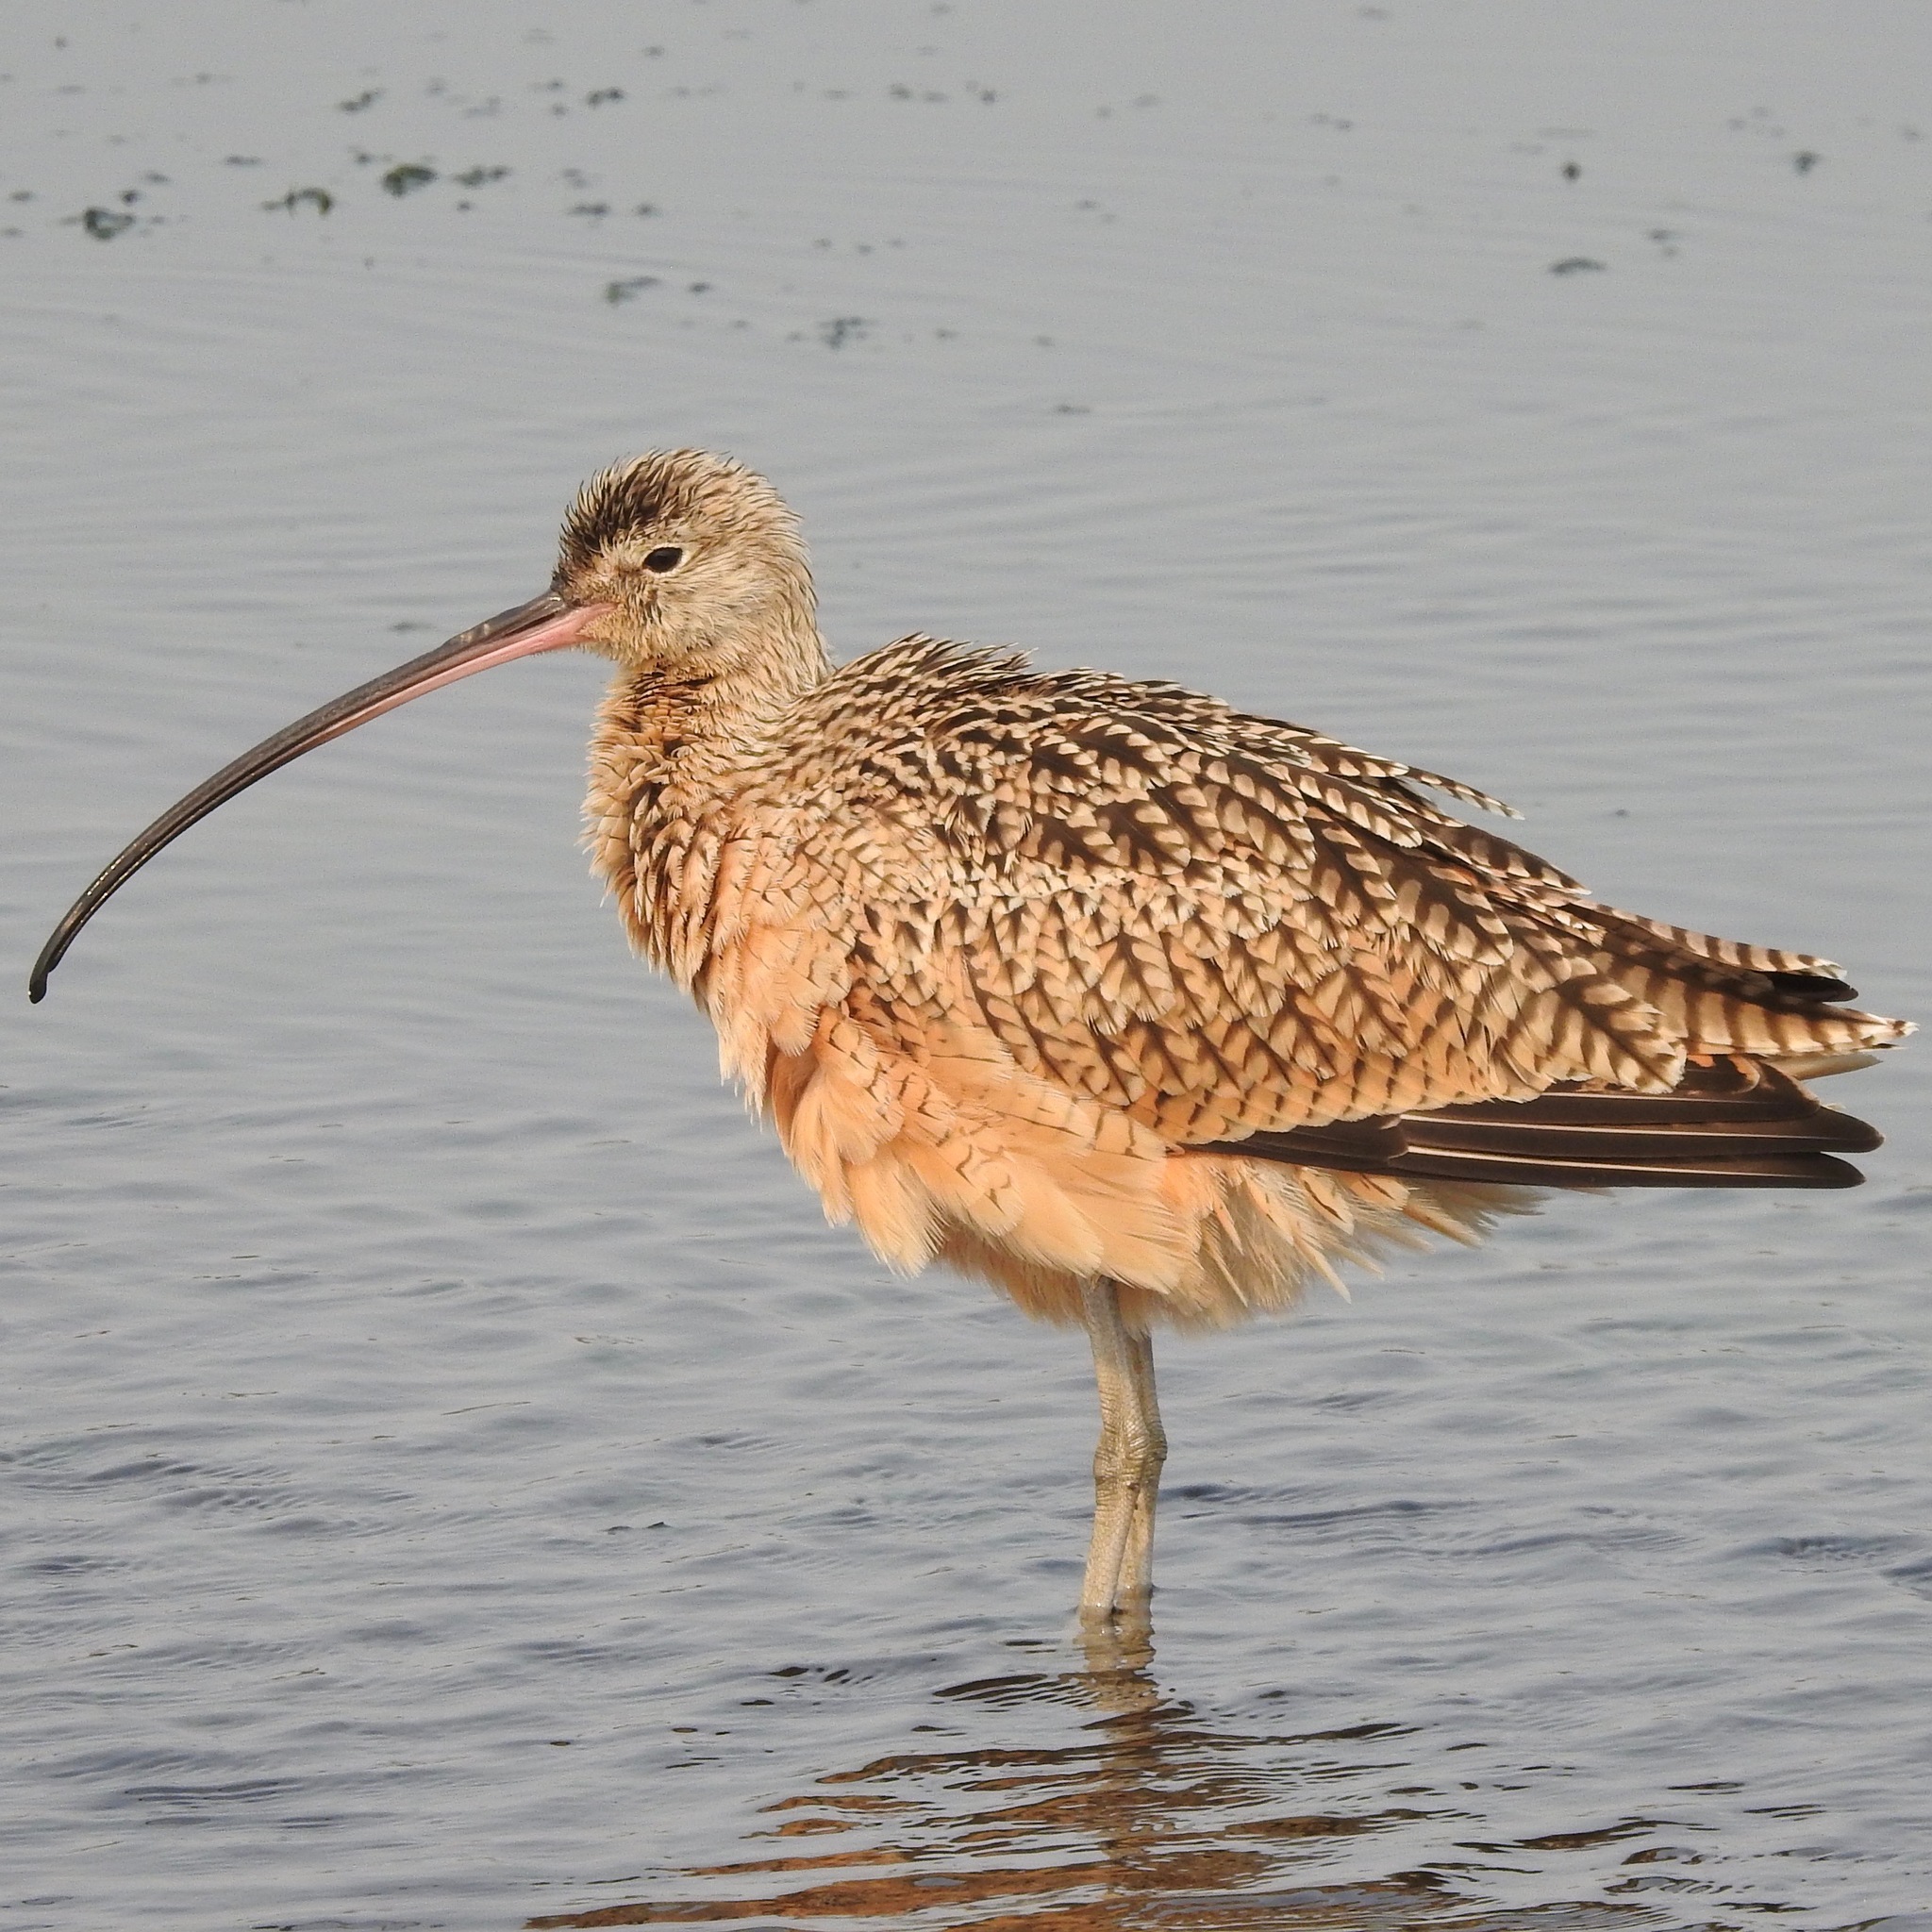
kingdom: Animalia
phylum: Chordata
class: Aves
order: Charadriiformes
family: Scolopacidae
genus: Numenius
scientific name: Numenius americanus
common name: Long-billed curlew
